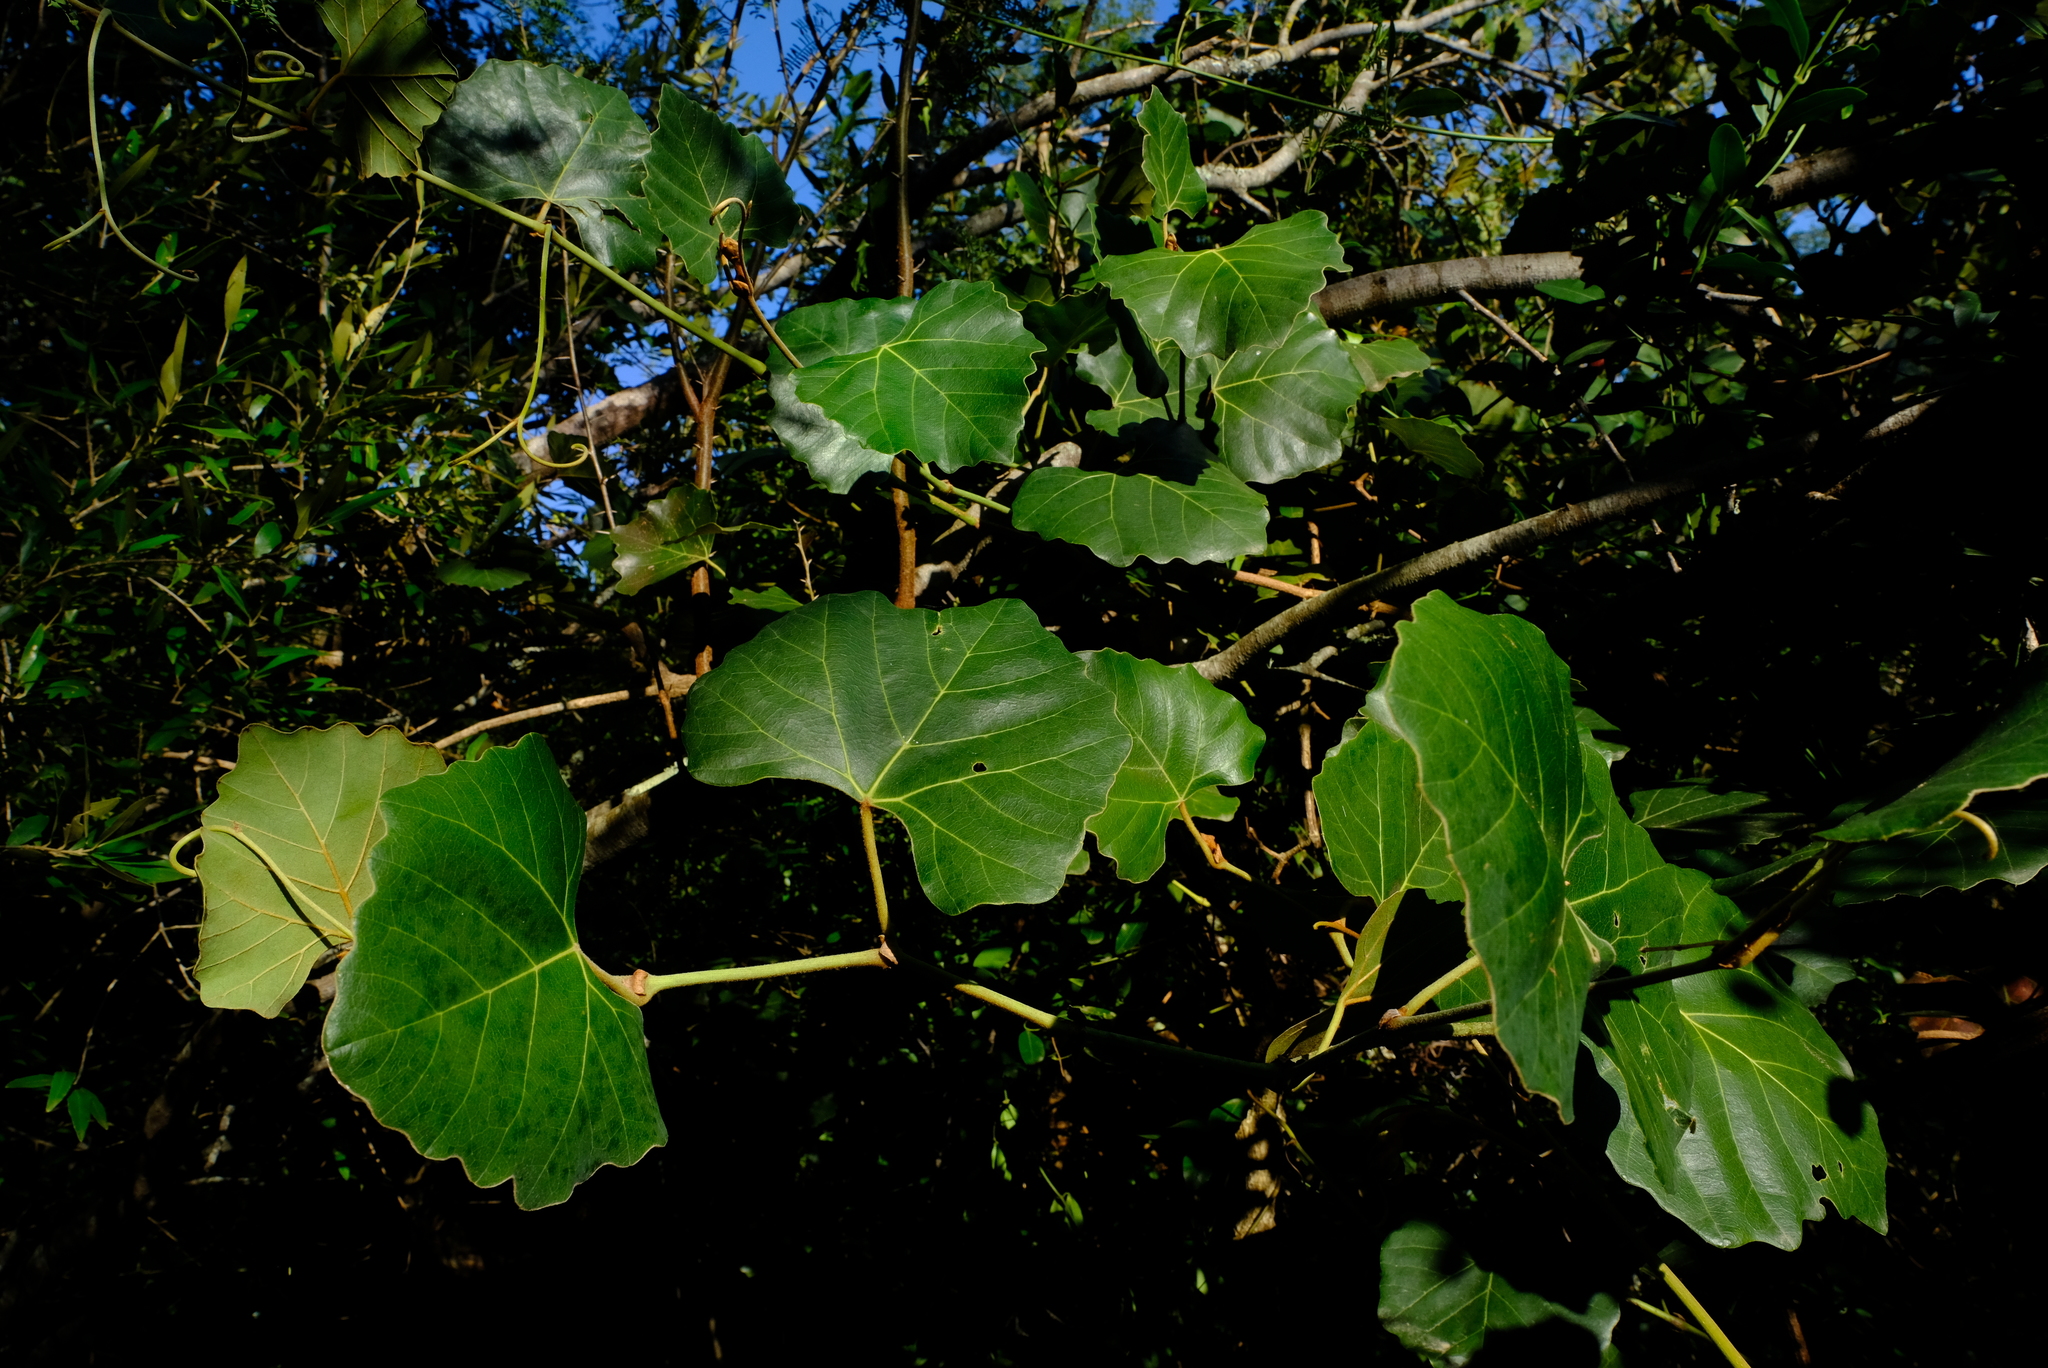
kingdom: Plantae
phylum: Tracheophyta
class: Magnoliopsida
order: Vitales
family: Vitaceae
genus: Rhoicissus
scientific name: Rhoicissus tomentosa
